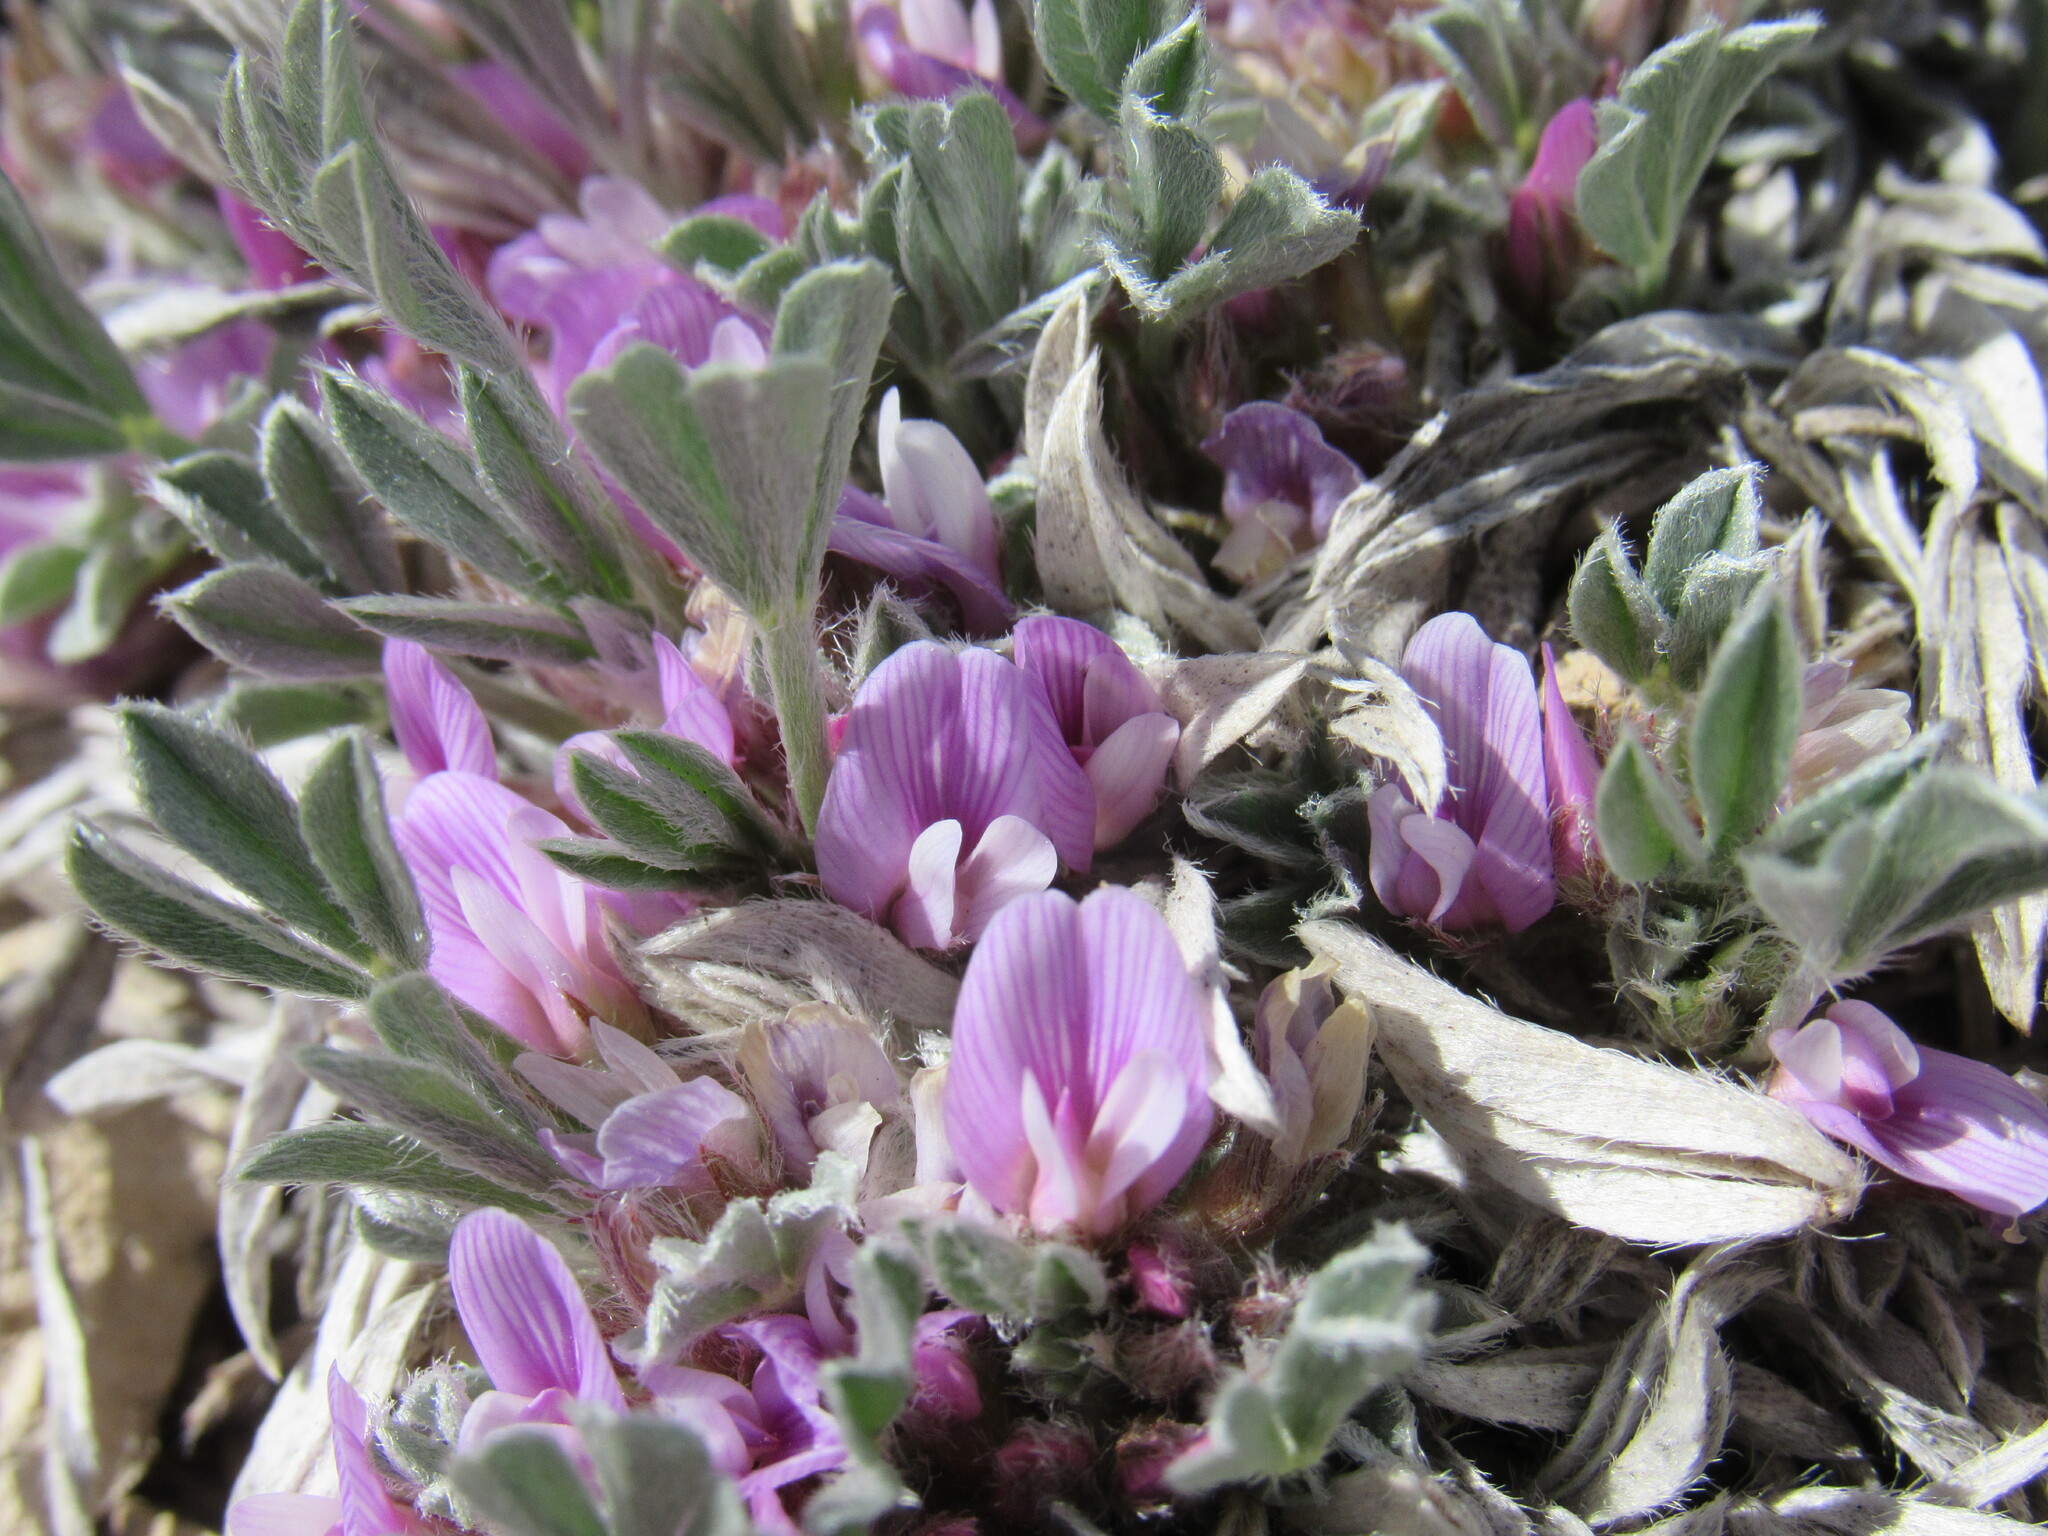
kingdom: Plantae
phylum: Tracheophyta
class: Magnoliopsida
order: Fabales
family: Fabaceae
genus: Astragalus
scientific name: Astragalus tridactylicus
